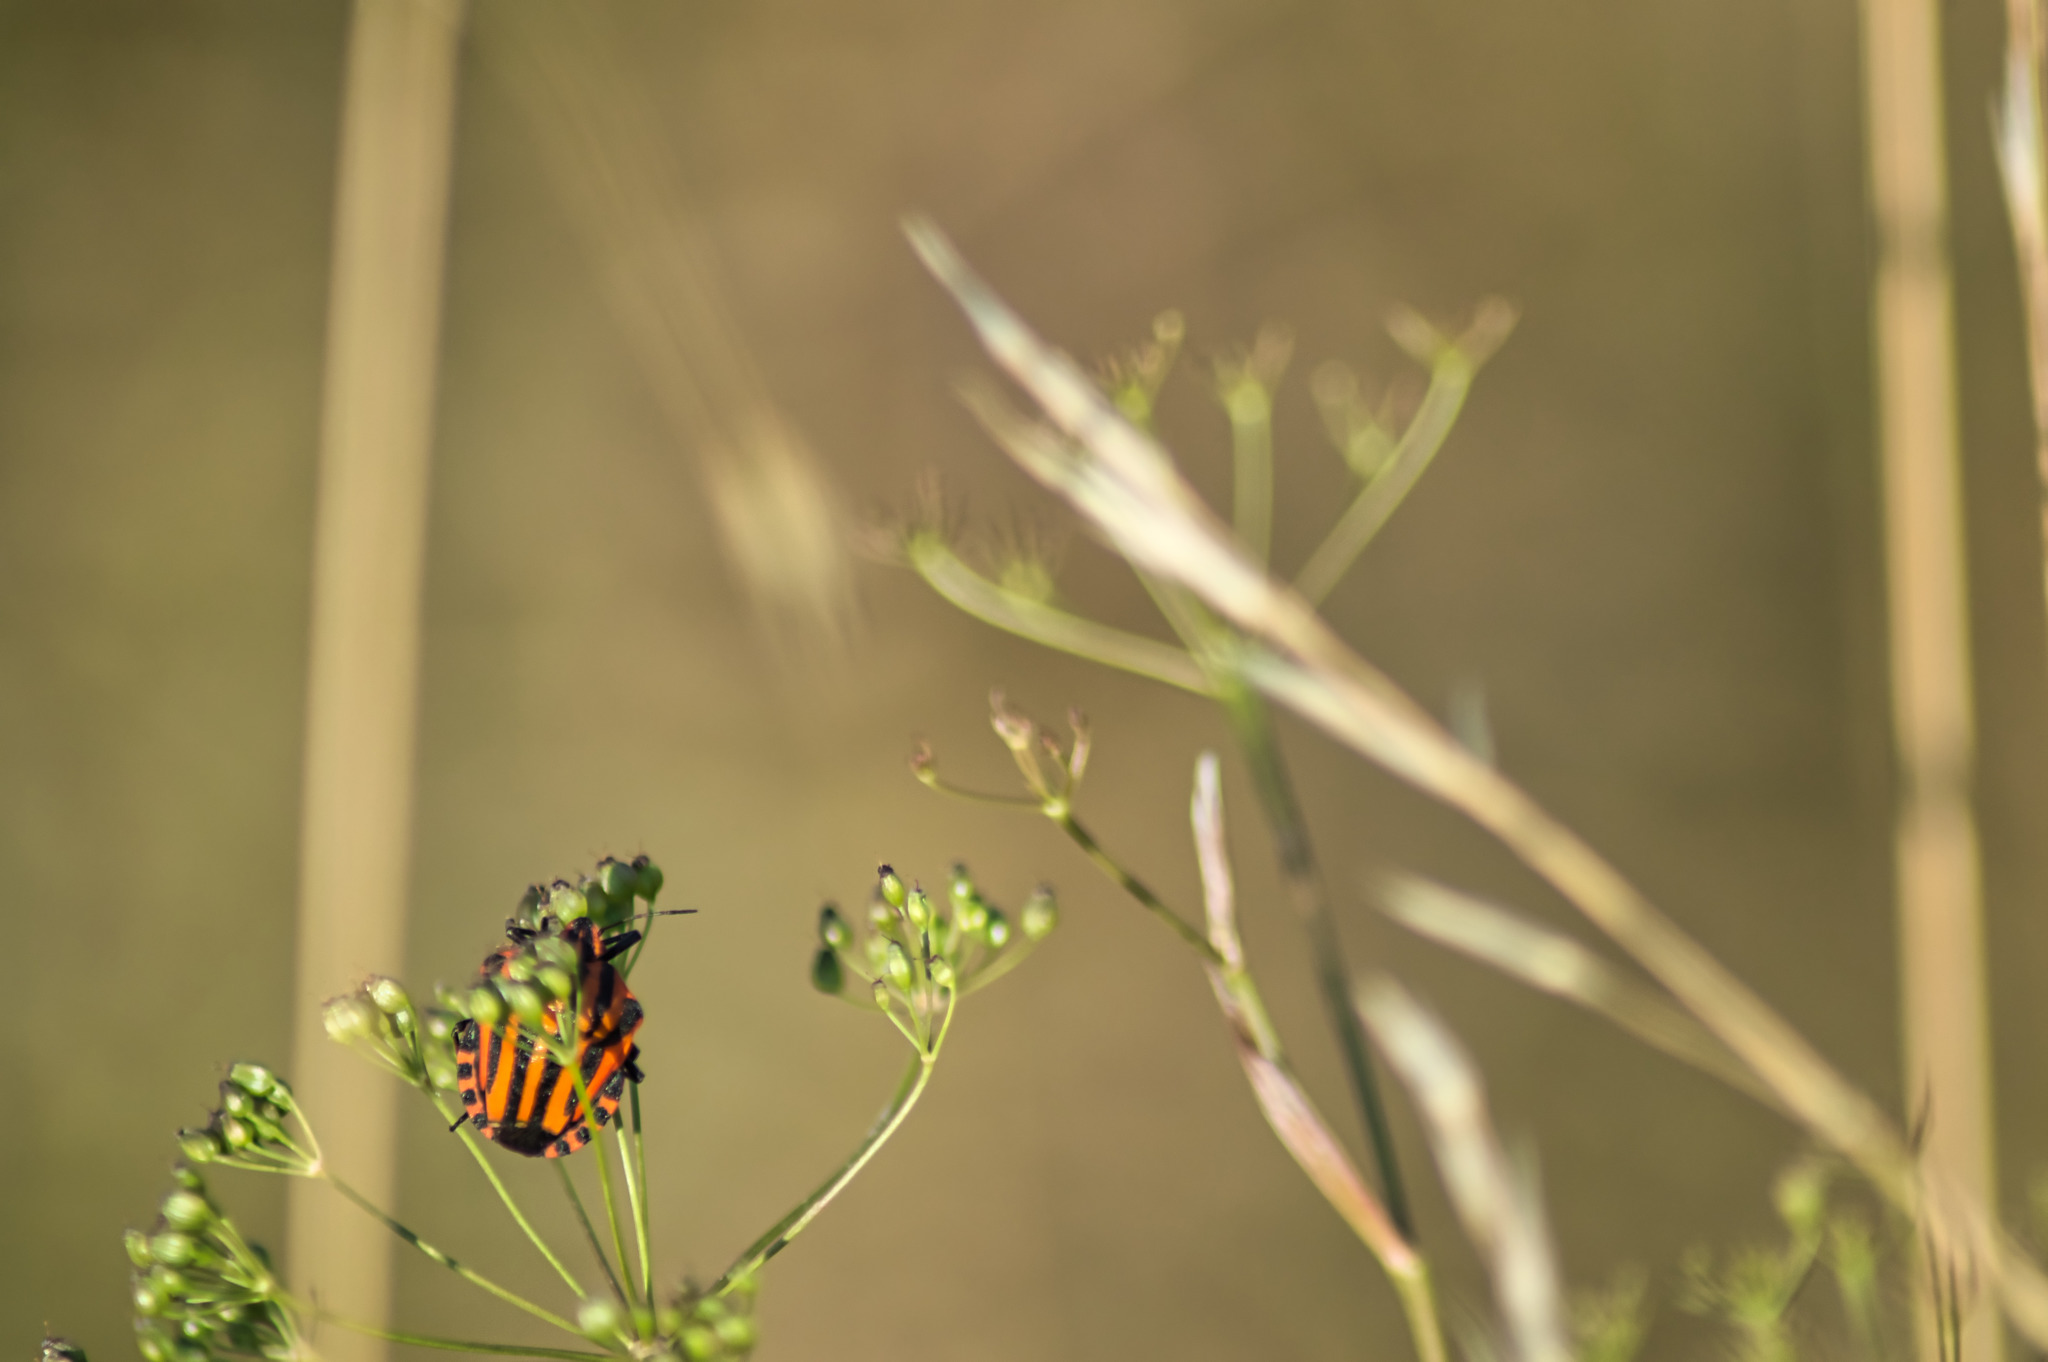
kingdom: Animalia
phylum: Arthropoda
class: Insecta
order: Hemiptera
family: Pentatomidae
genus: Graphosoma
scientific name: Graphosoma italicum
